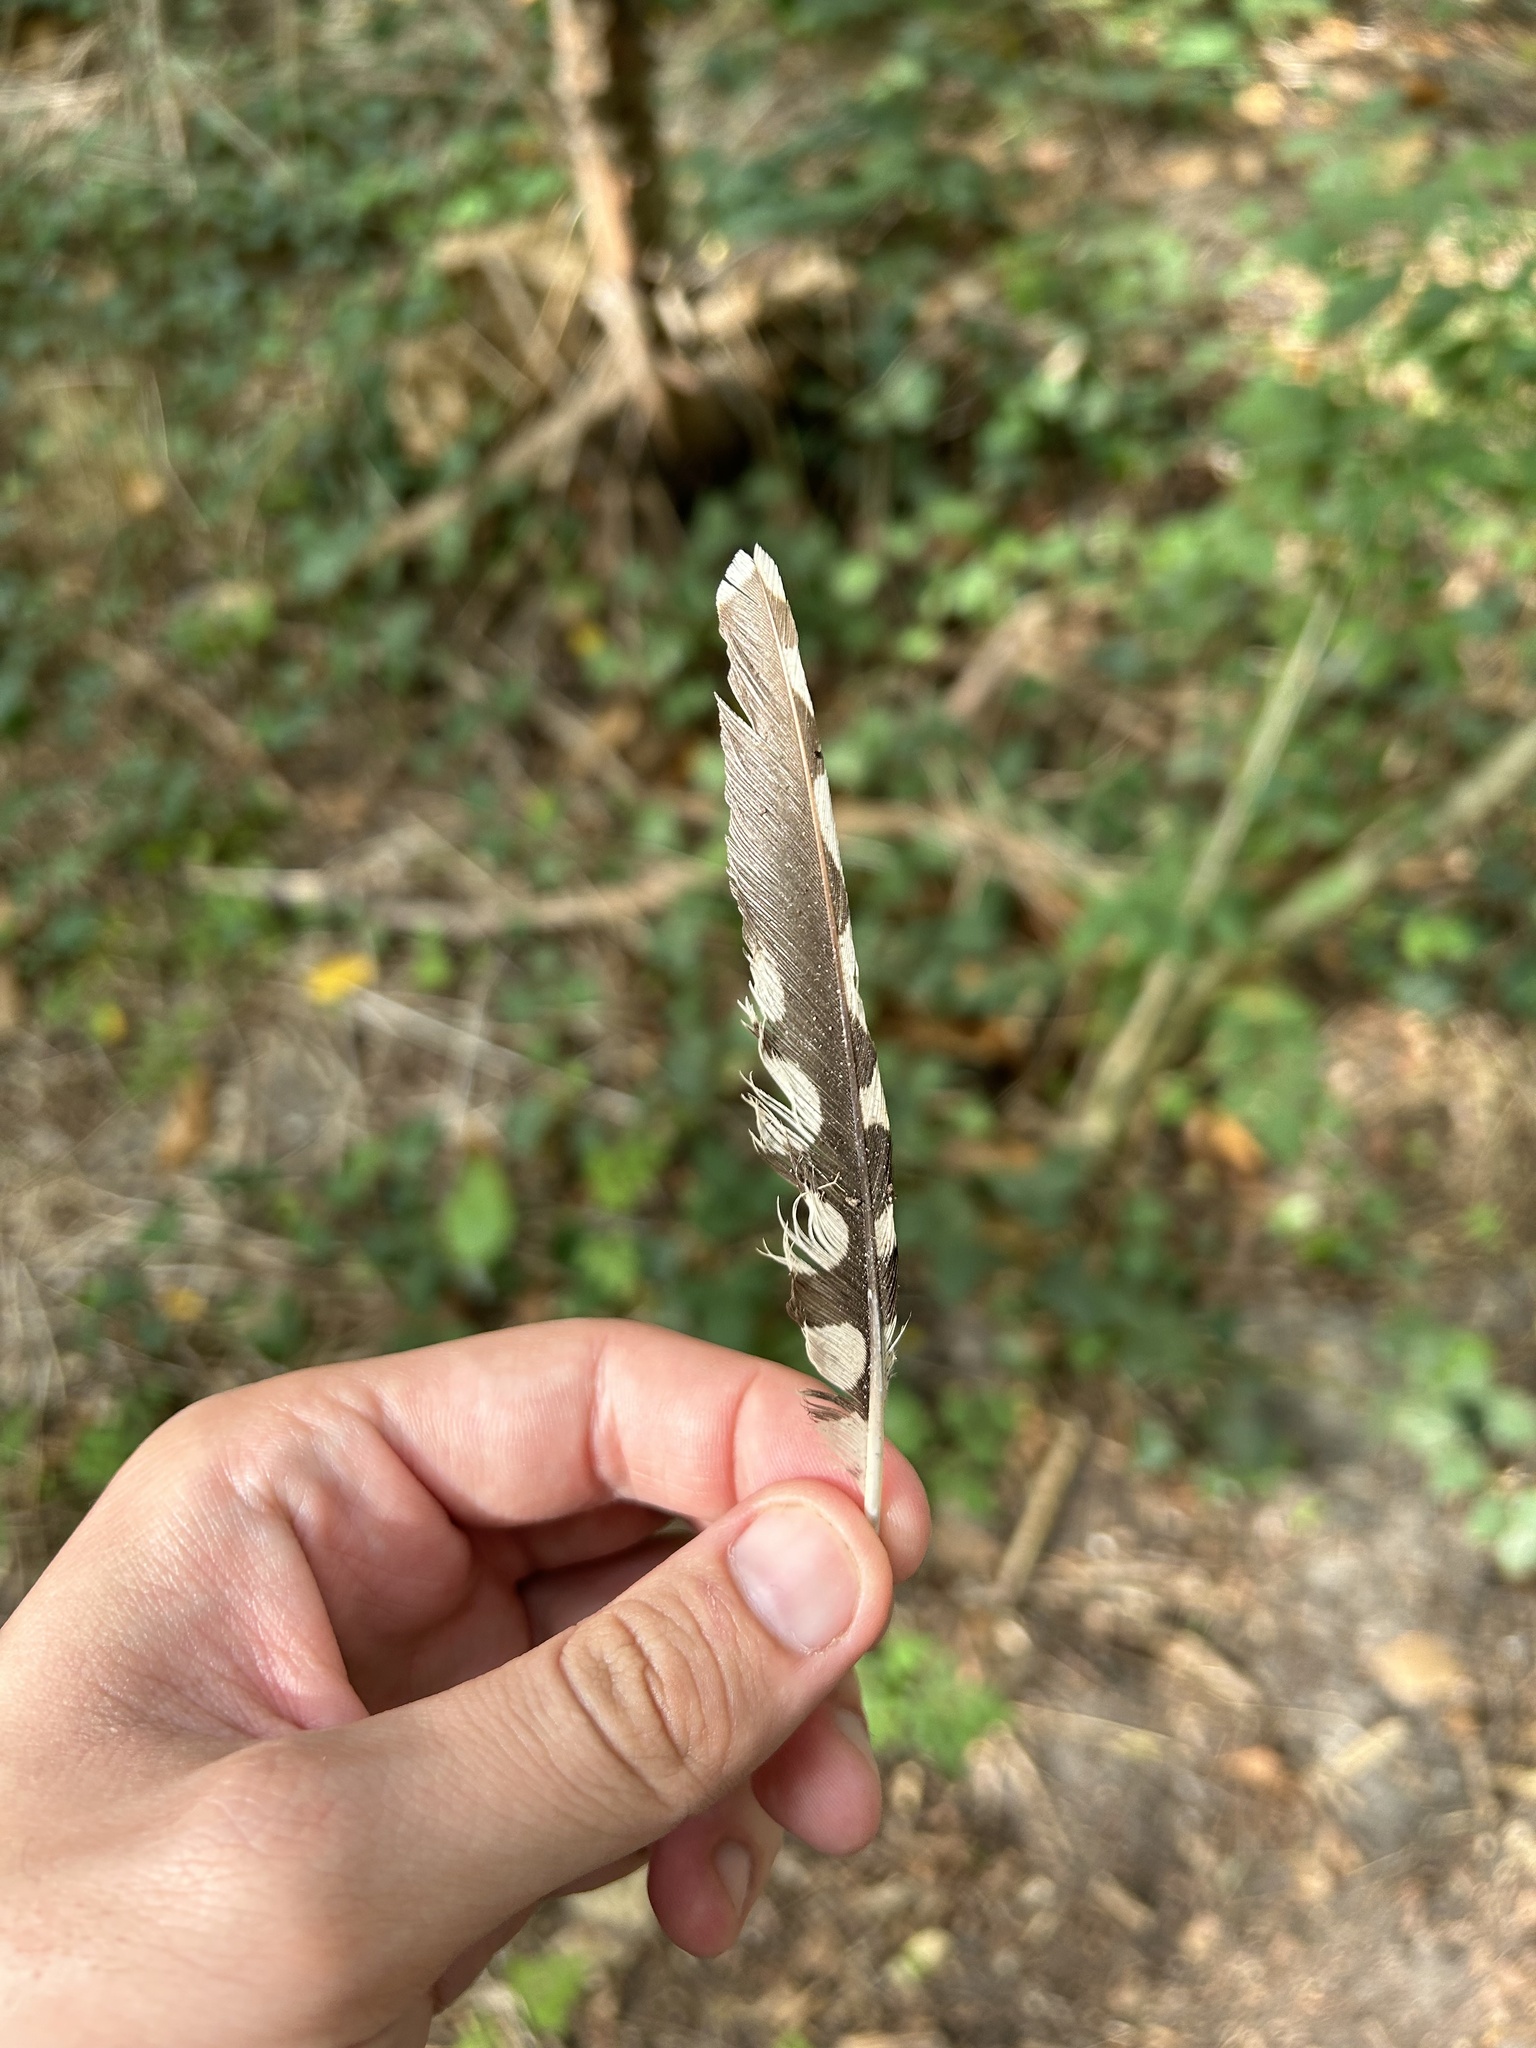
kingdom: Animalia
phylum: Chordata
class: Aves
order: Piciformes
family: Picidae
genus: Dendrocopos
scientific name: Dendrocopos major
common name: Great spotted woodpecker
